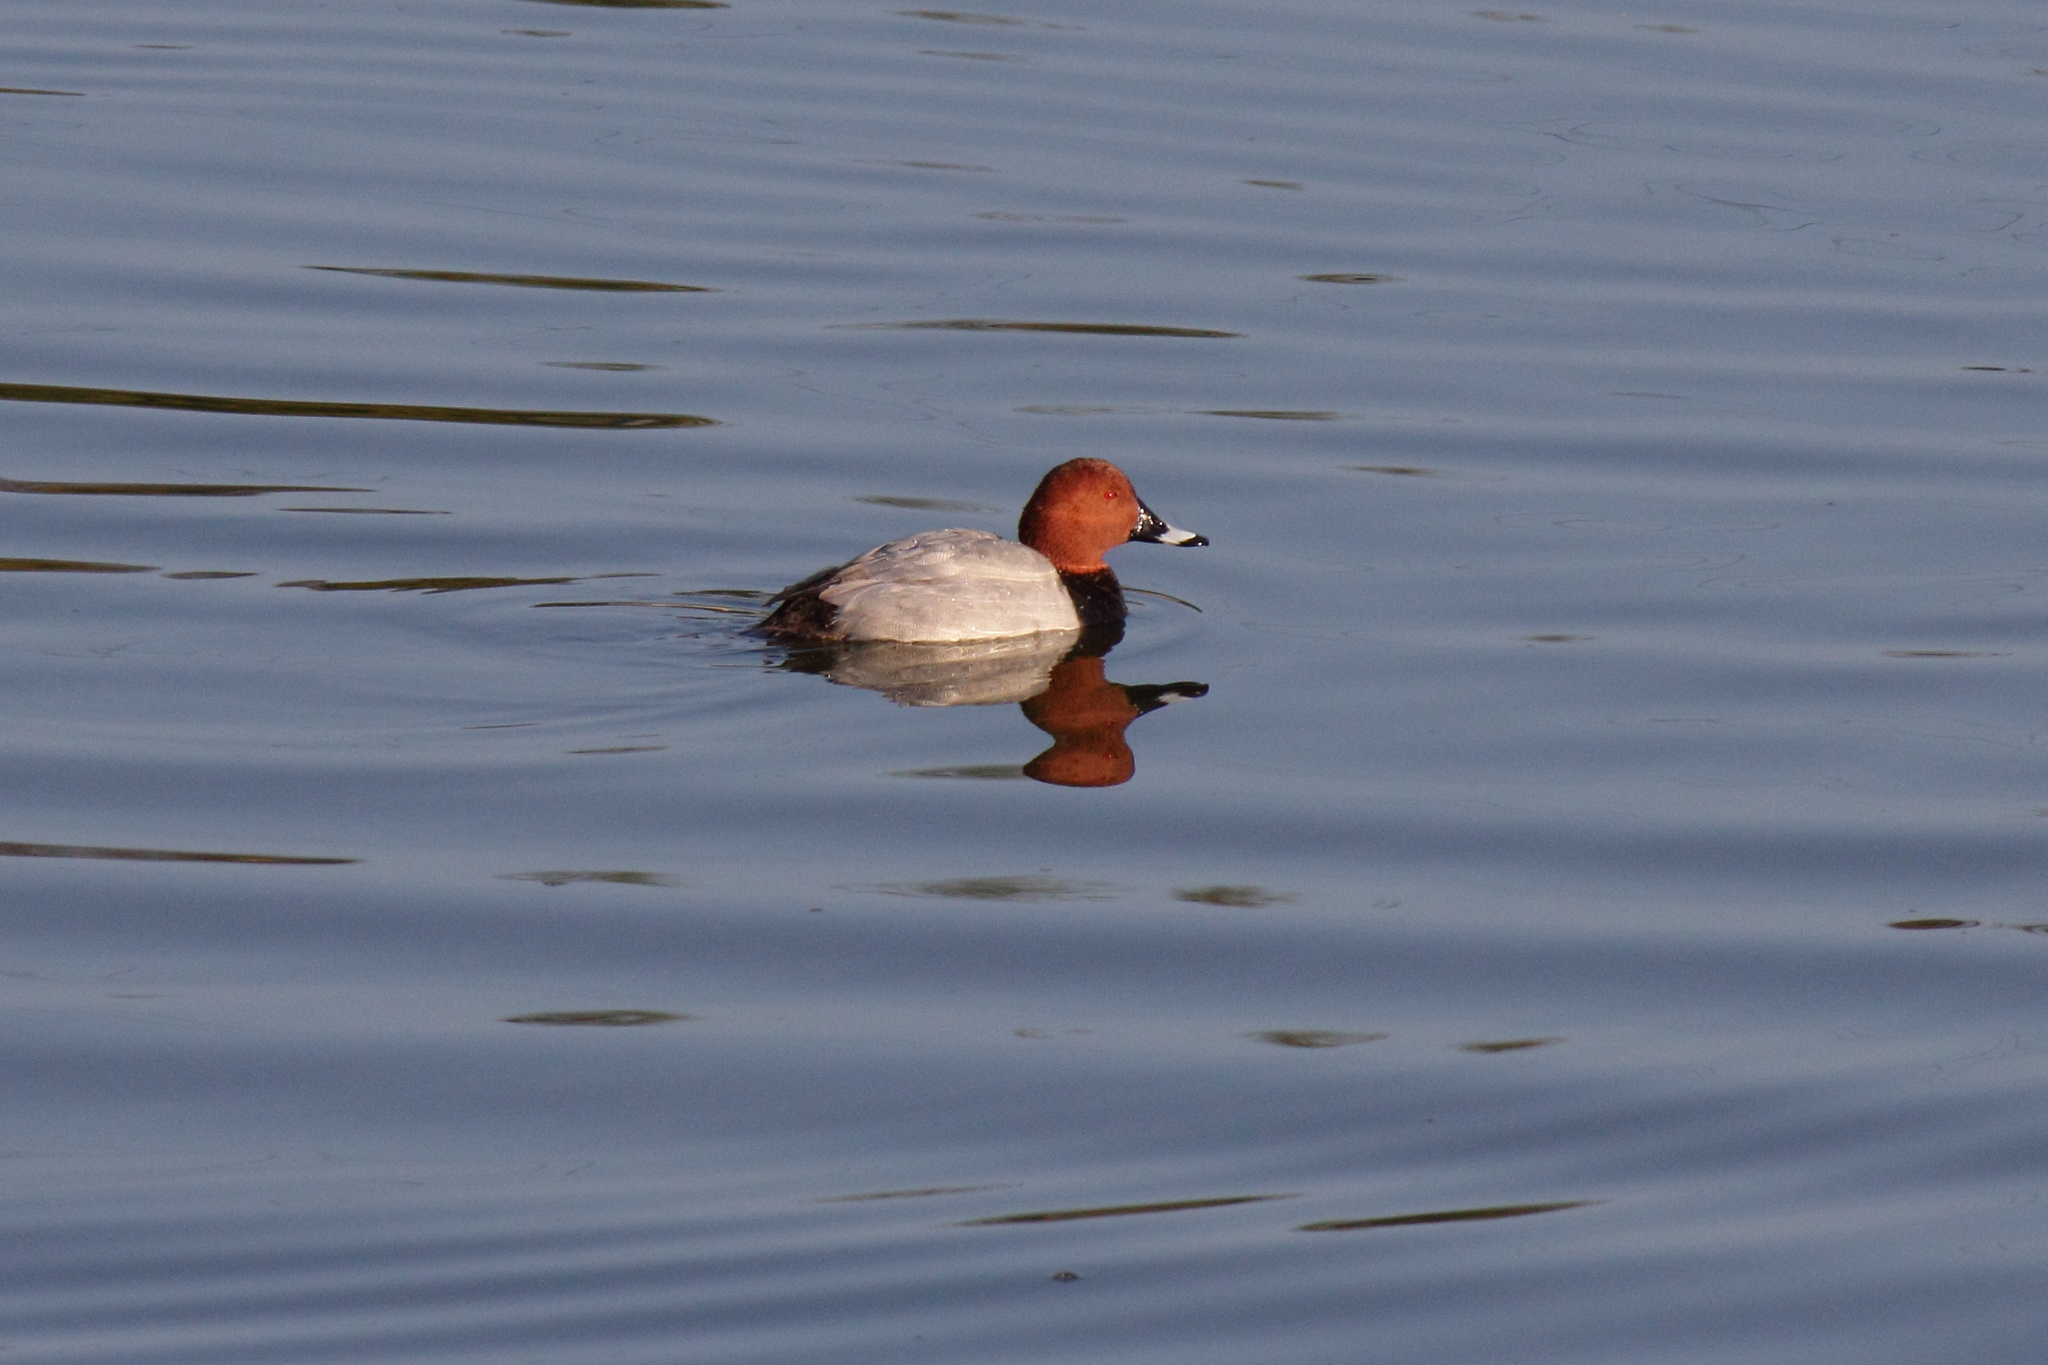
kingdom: Animalia
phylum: Chordata
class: Aves
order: Anseriformes
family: Anatidae
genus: Aythya
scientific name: Aythya ferina
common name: Common pochard
